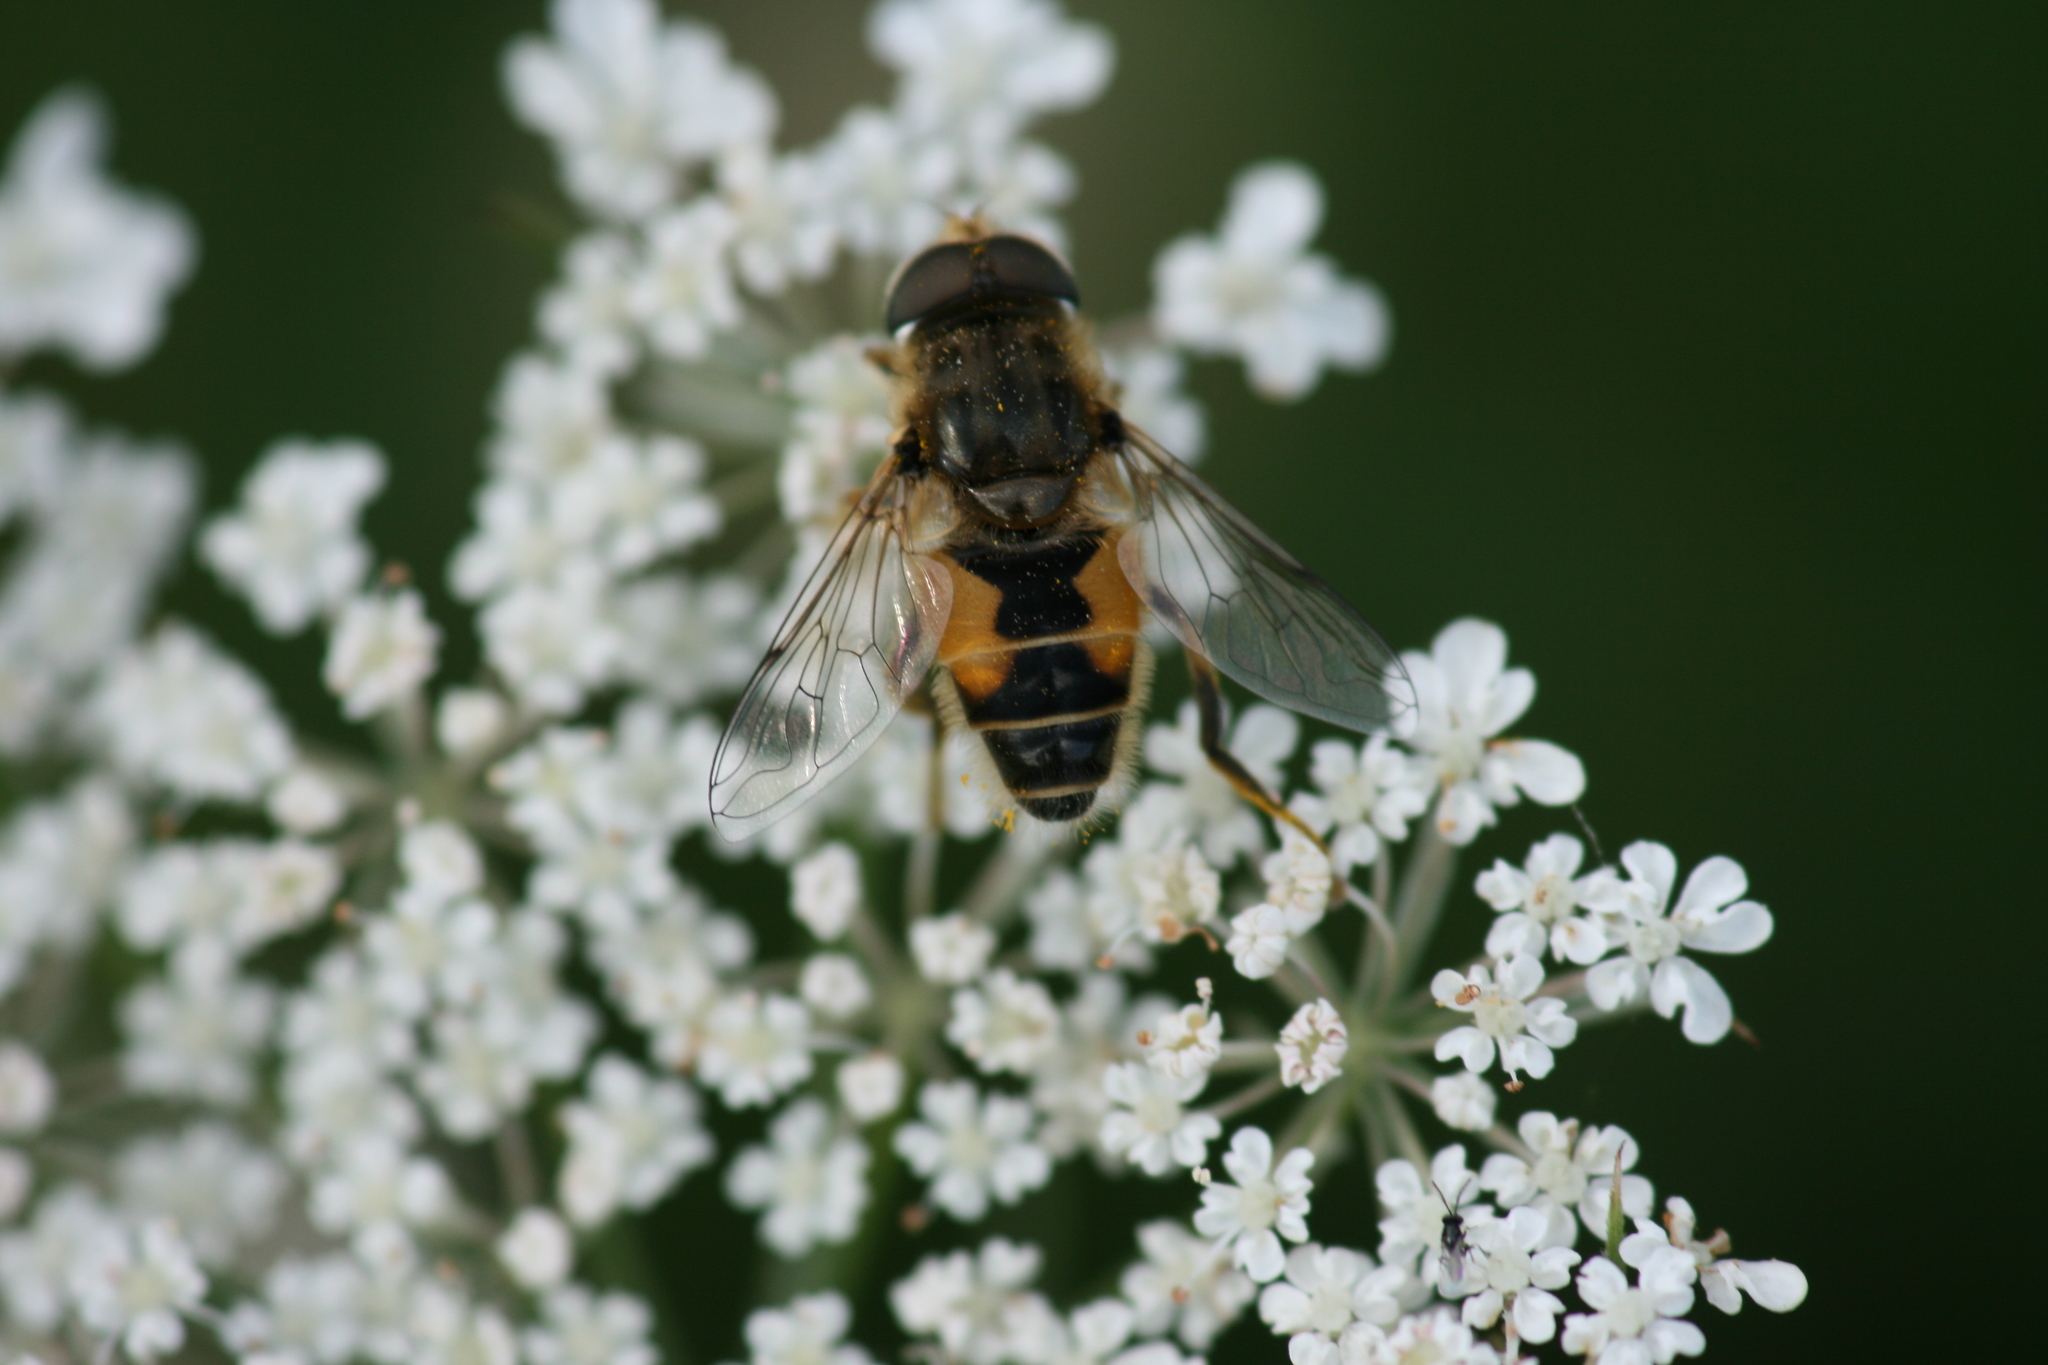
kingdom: Animalia
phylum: Arthropoda
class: Insecta
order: Diptera
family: Syrphidae
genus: Eristalis
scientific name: Eristalis arbustorum
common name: Hover fly
